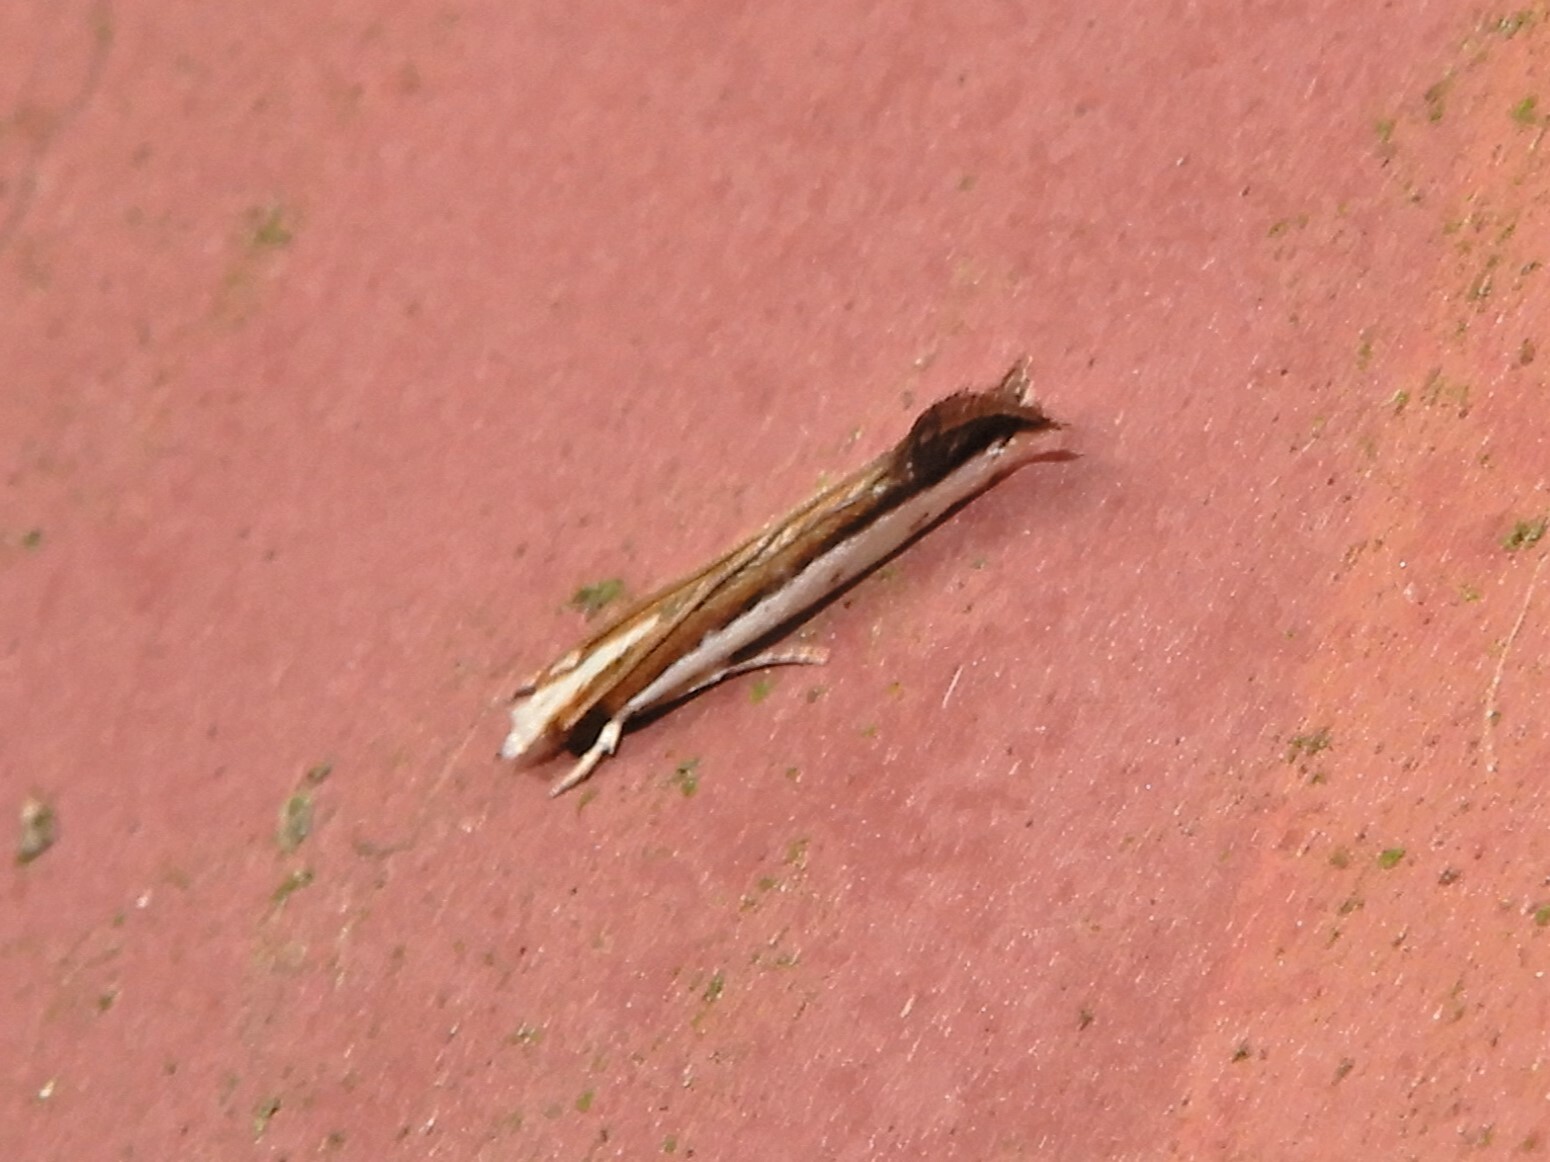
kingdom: Animalia
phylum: Arthropoda
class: Insecta
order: Lepidoptera
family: Tineidae
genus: Erechthias
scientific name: Erechthias chionodira
